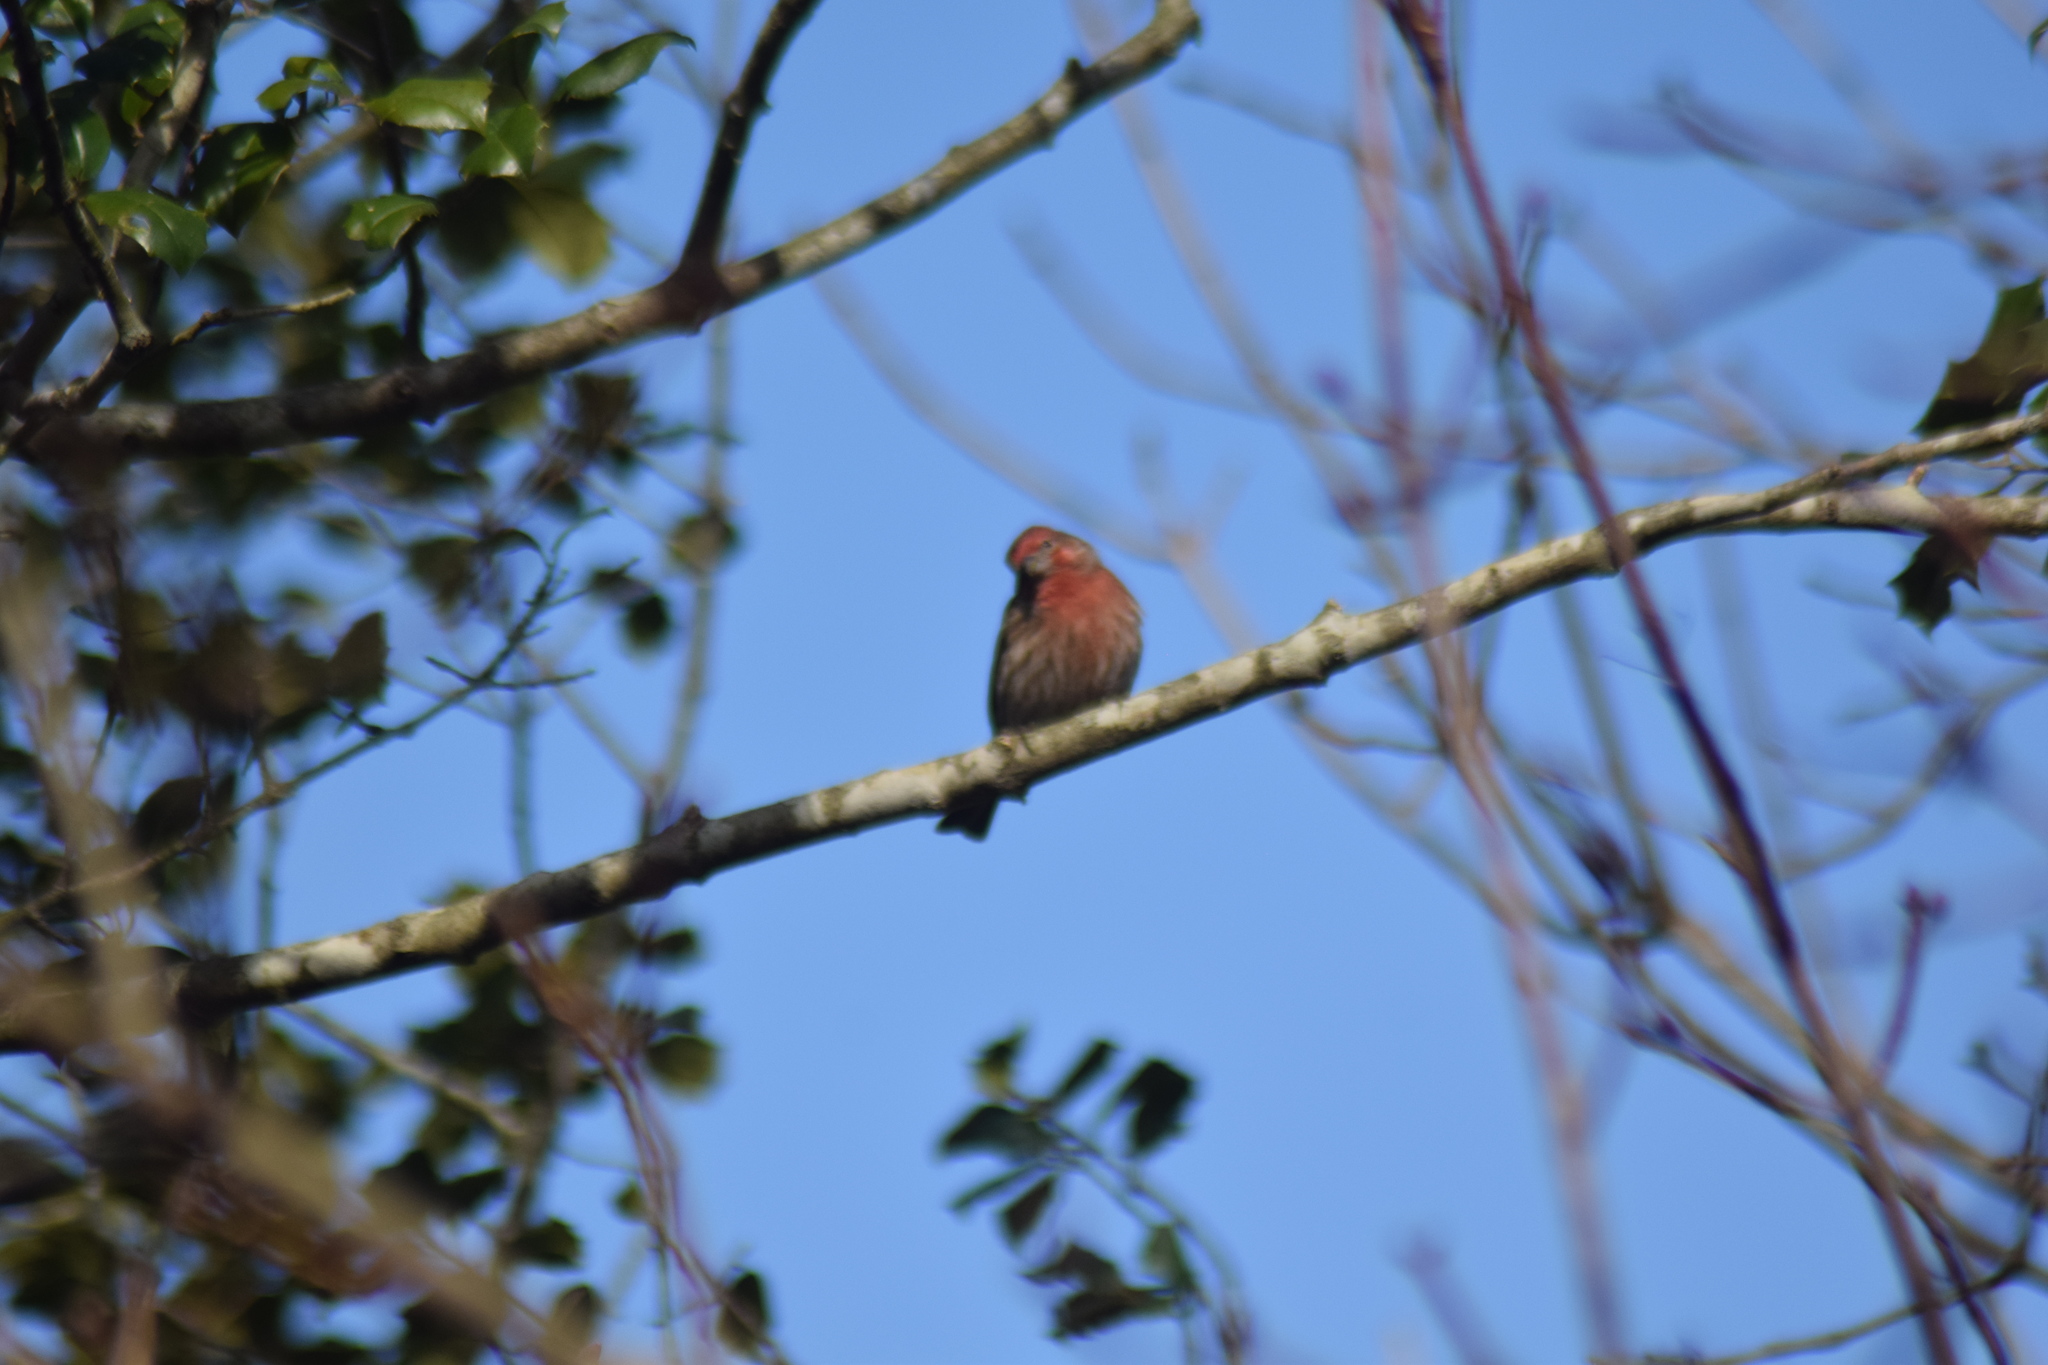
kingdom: Animalia
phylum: Chordata
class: Aves
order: Passeriformes
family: Fringillidae
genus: Haemorhous
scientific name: Haemorhous mexicanus
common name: House finch
